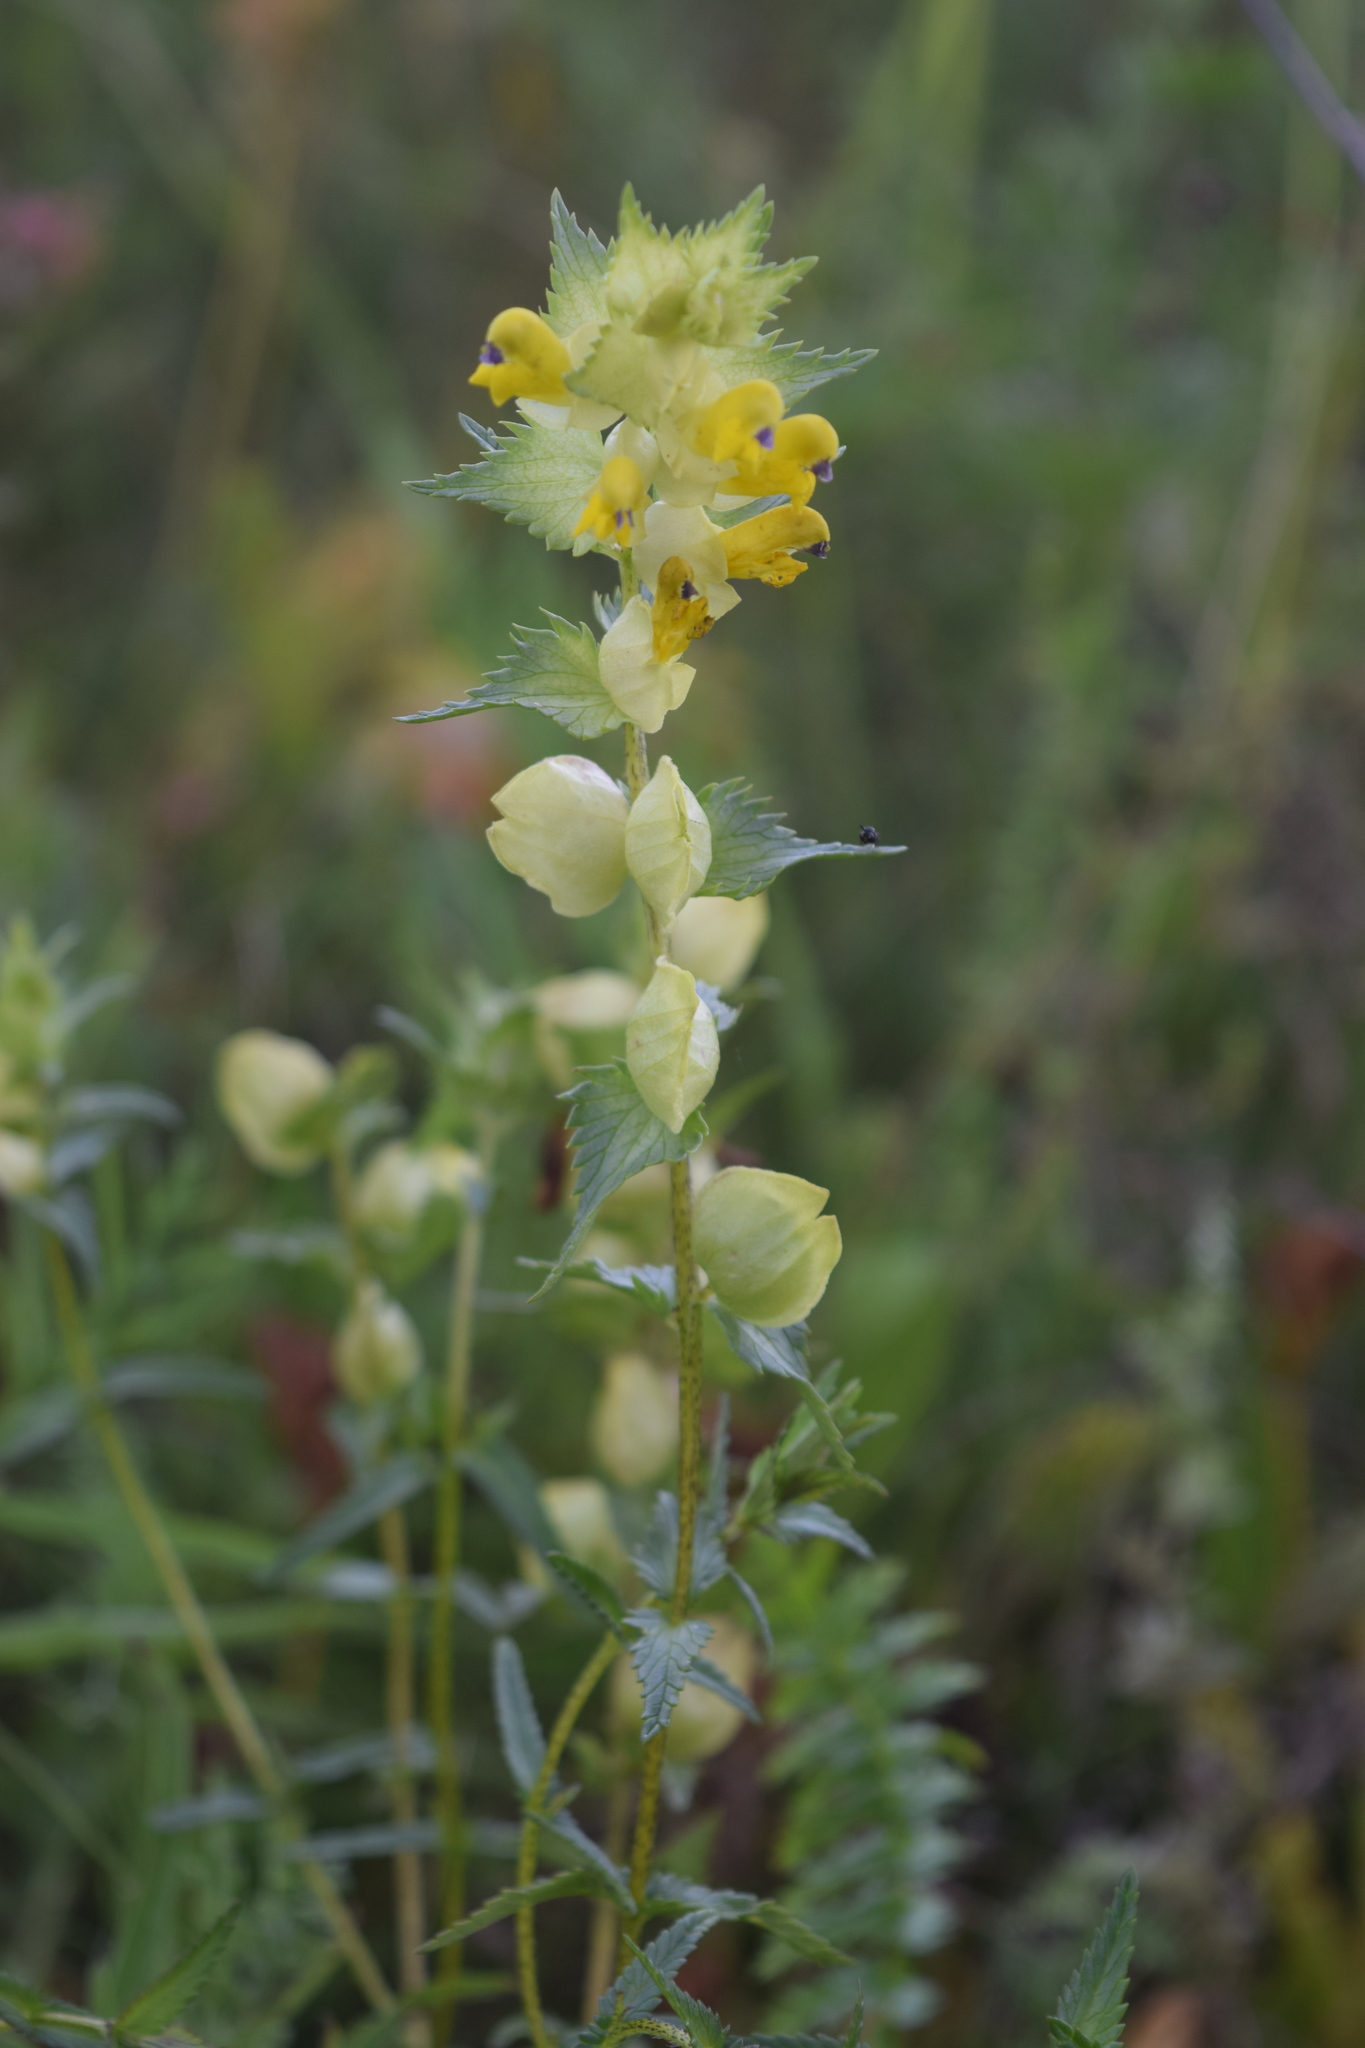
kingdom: Plantae
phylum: Tracheophyta
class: Magnoliopsida
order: Lamiales
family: Orobanchaceae
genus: Rhinanthus
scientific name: Rhinanthus minor
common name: Yellow-rattle
